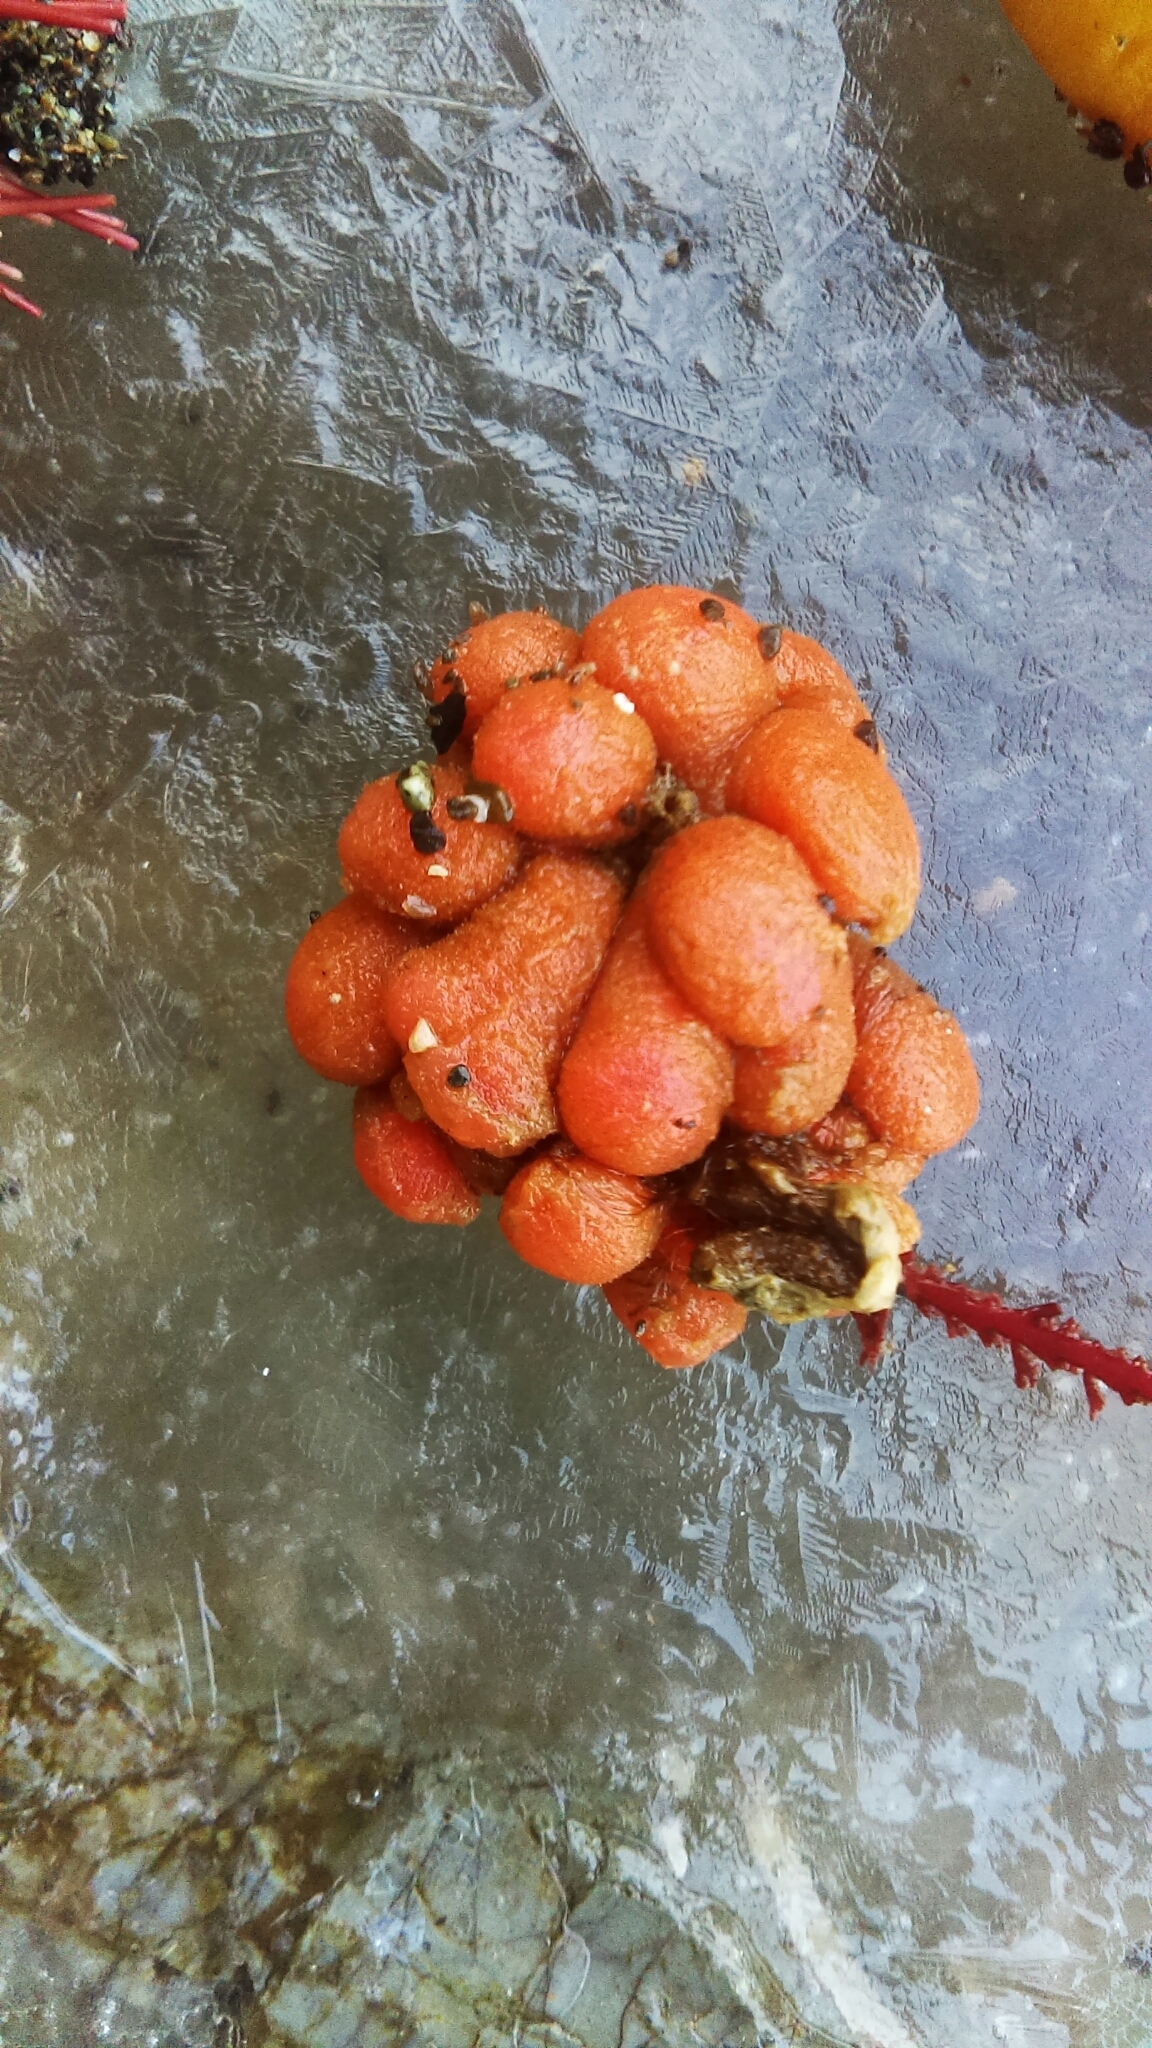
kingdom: Animalia
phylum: Chordata
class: Ascidiacea
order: Aplousobranchia
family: Holozoidae
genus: Distaplia
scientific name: Distaplia occidentalis
